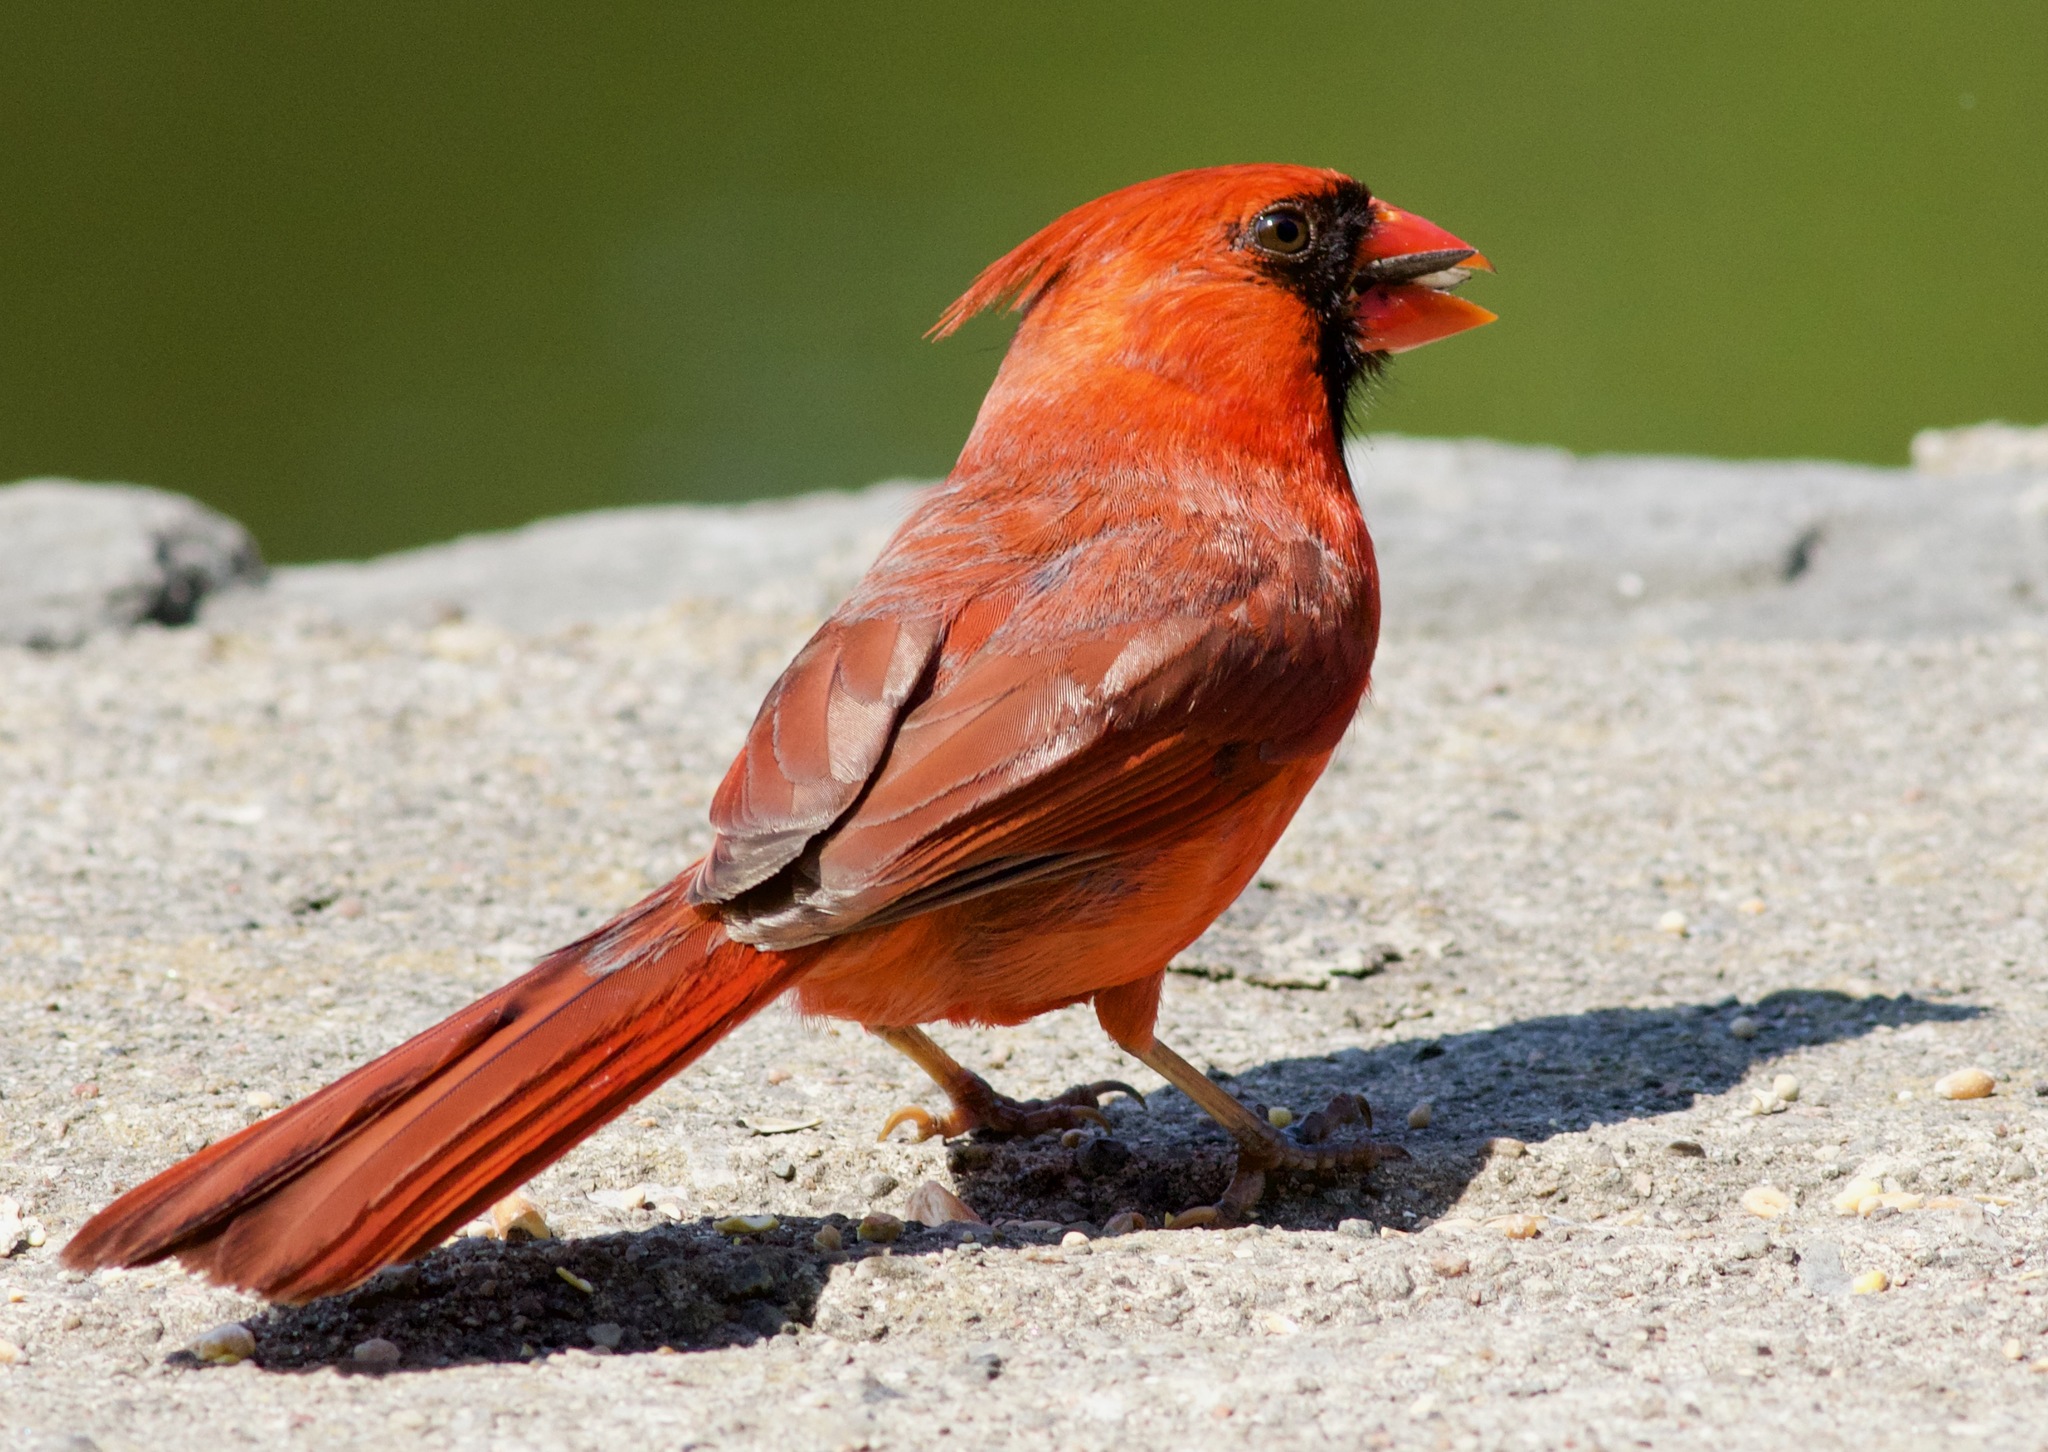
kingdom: Animalia
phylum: Chordata
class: Aves
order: Passeriformes
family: Cardinalidae
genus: Cardinalis
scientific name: Cardinalis cardinalis
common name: Northern cardinal
